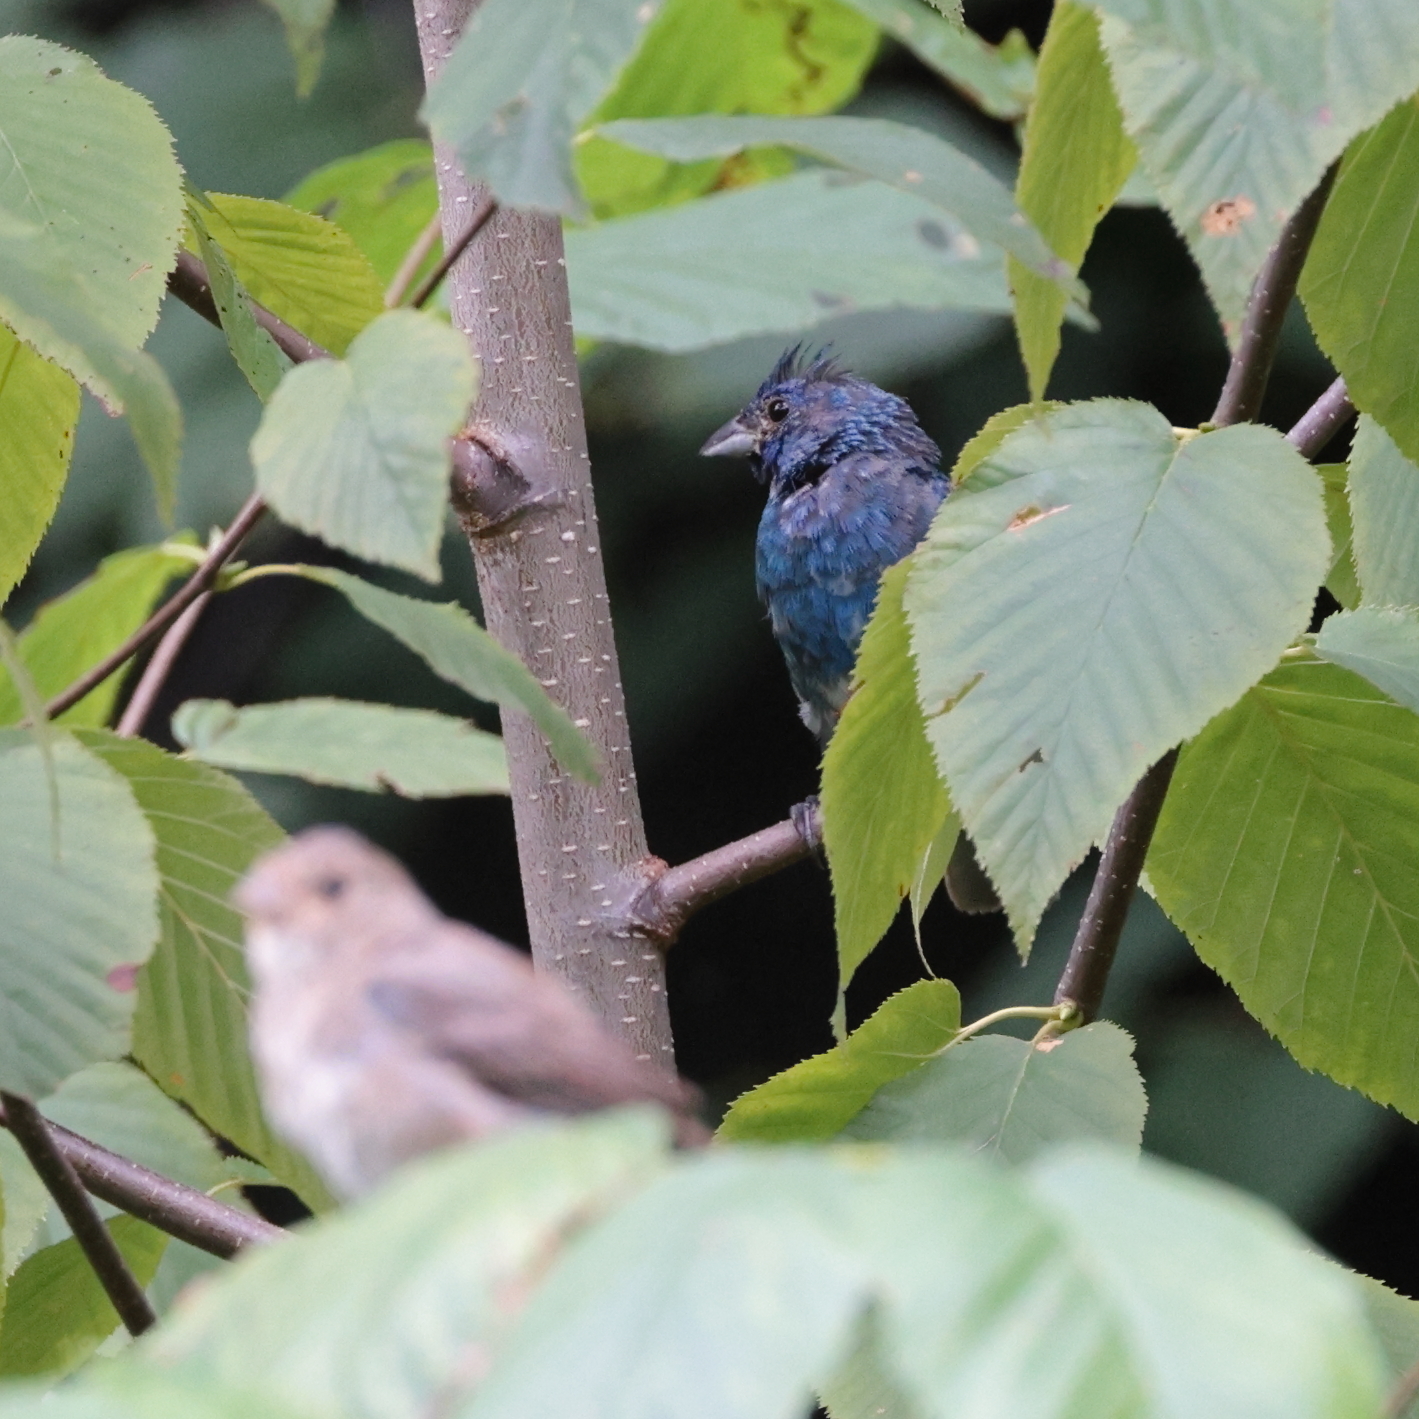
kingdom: Animalia
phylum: Chordata
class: Aves
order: Passeriformes
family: Cardinalidae
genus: Passerina
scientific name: Passerina cyanea
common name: Indigo bunting
